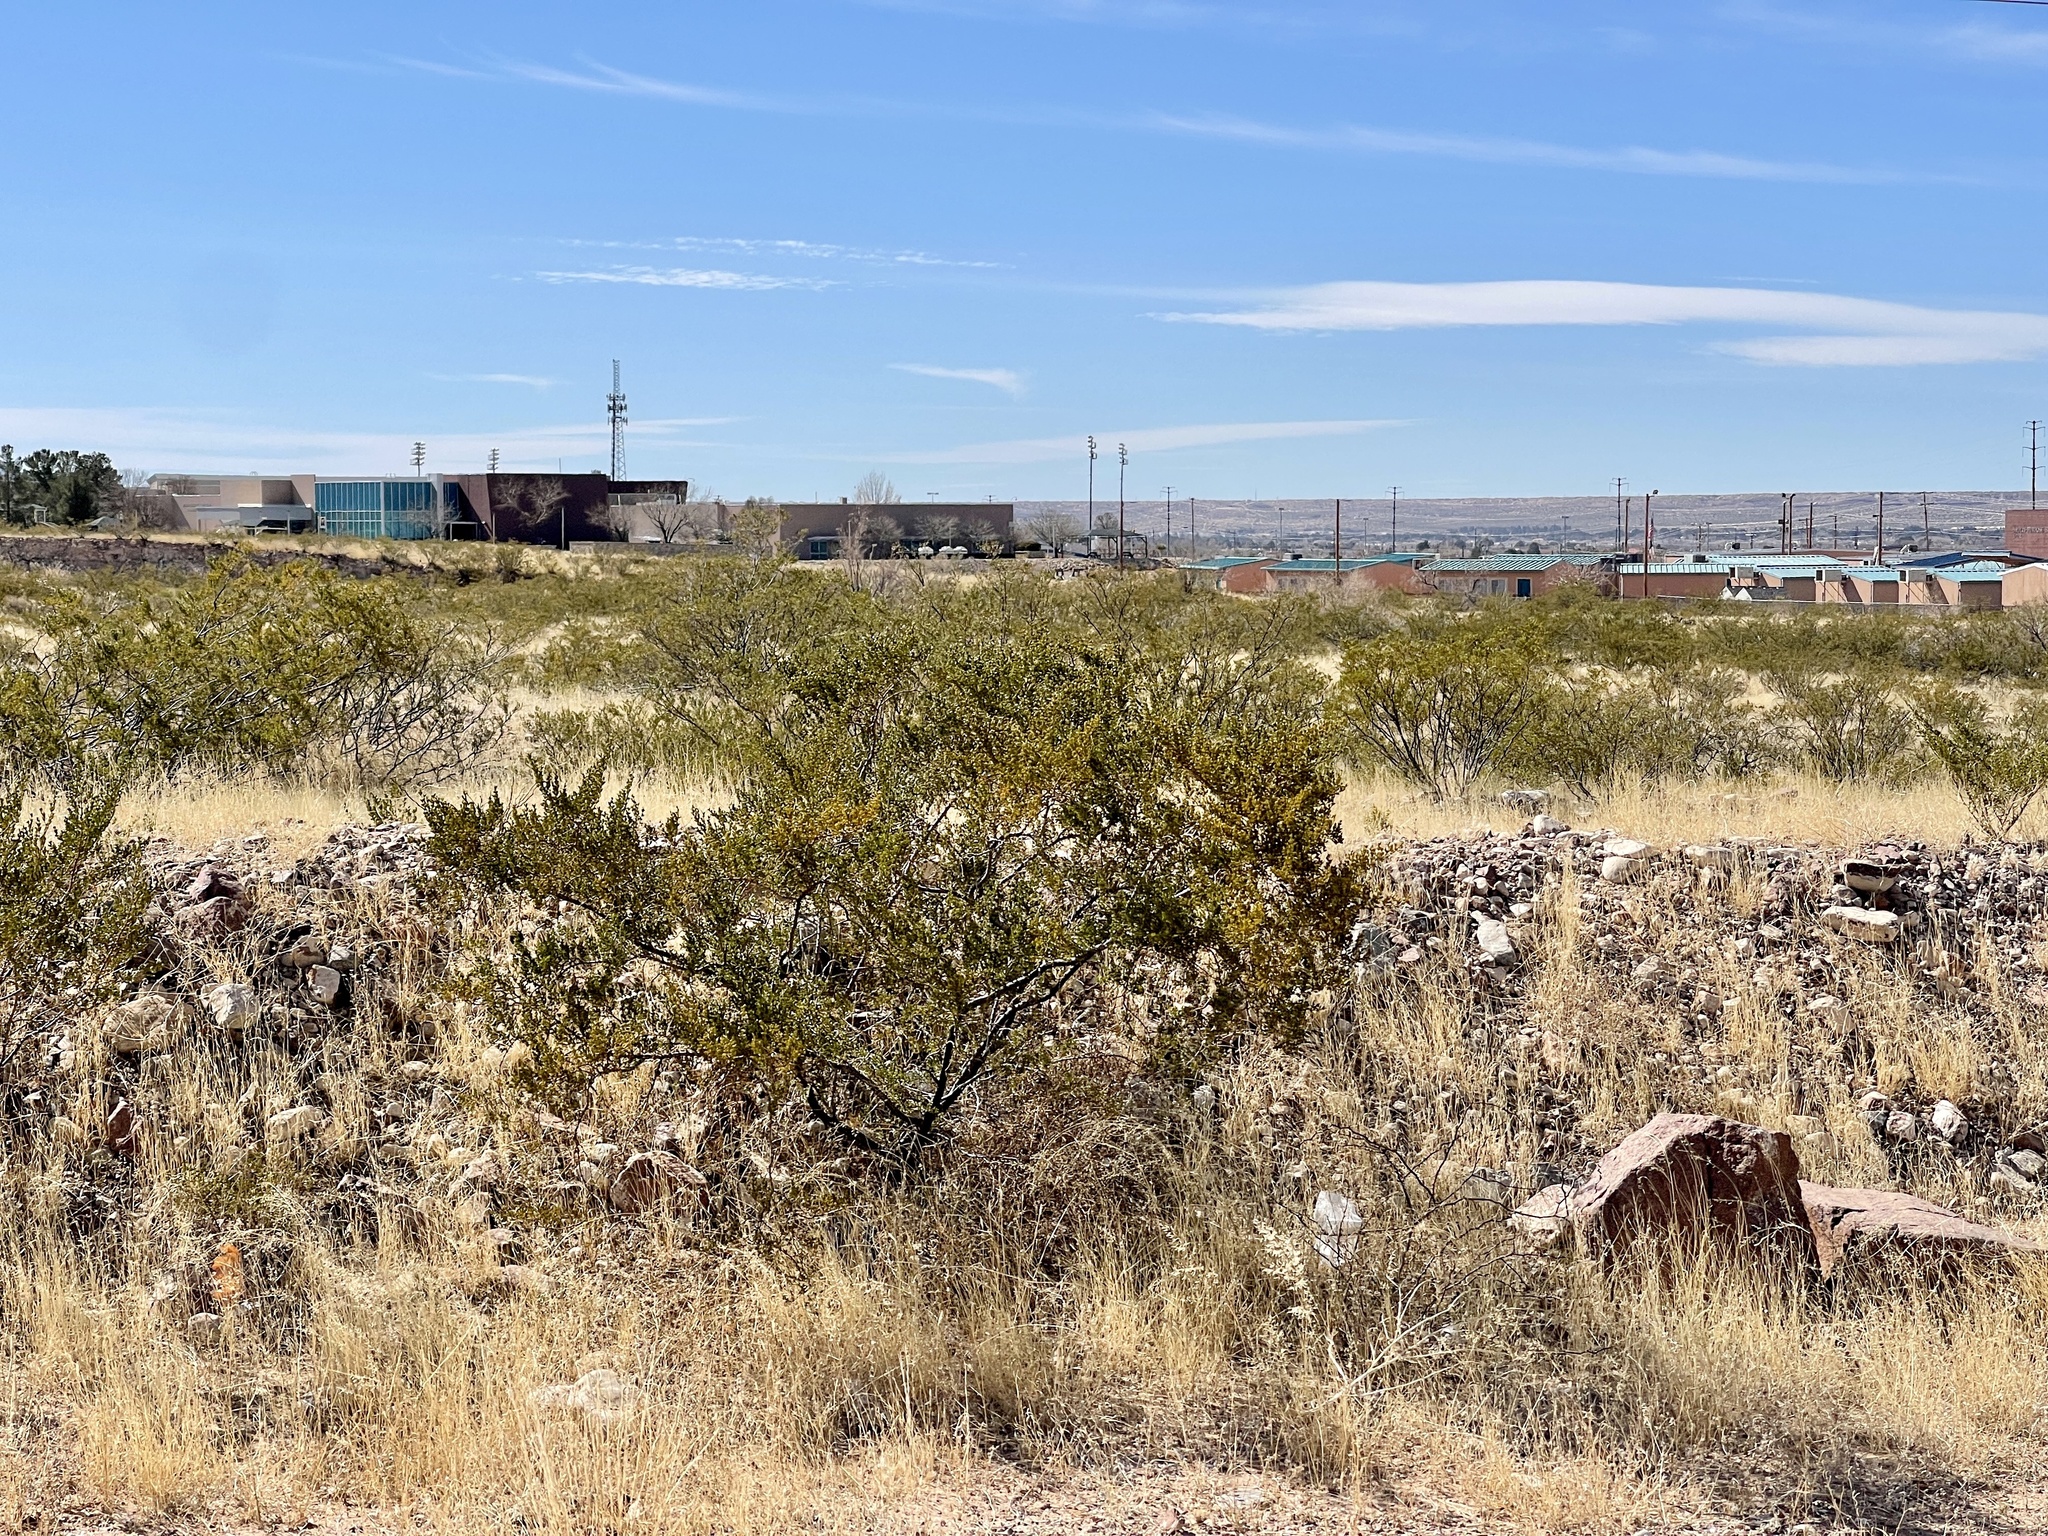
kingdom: Plantae
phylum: Tracheophyta
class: Magnoliopsida
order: Zygophyllales
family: Zygophyllaceae
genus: Larrea
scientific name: Larrea tridentata
